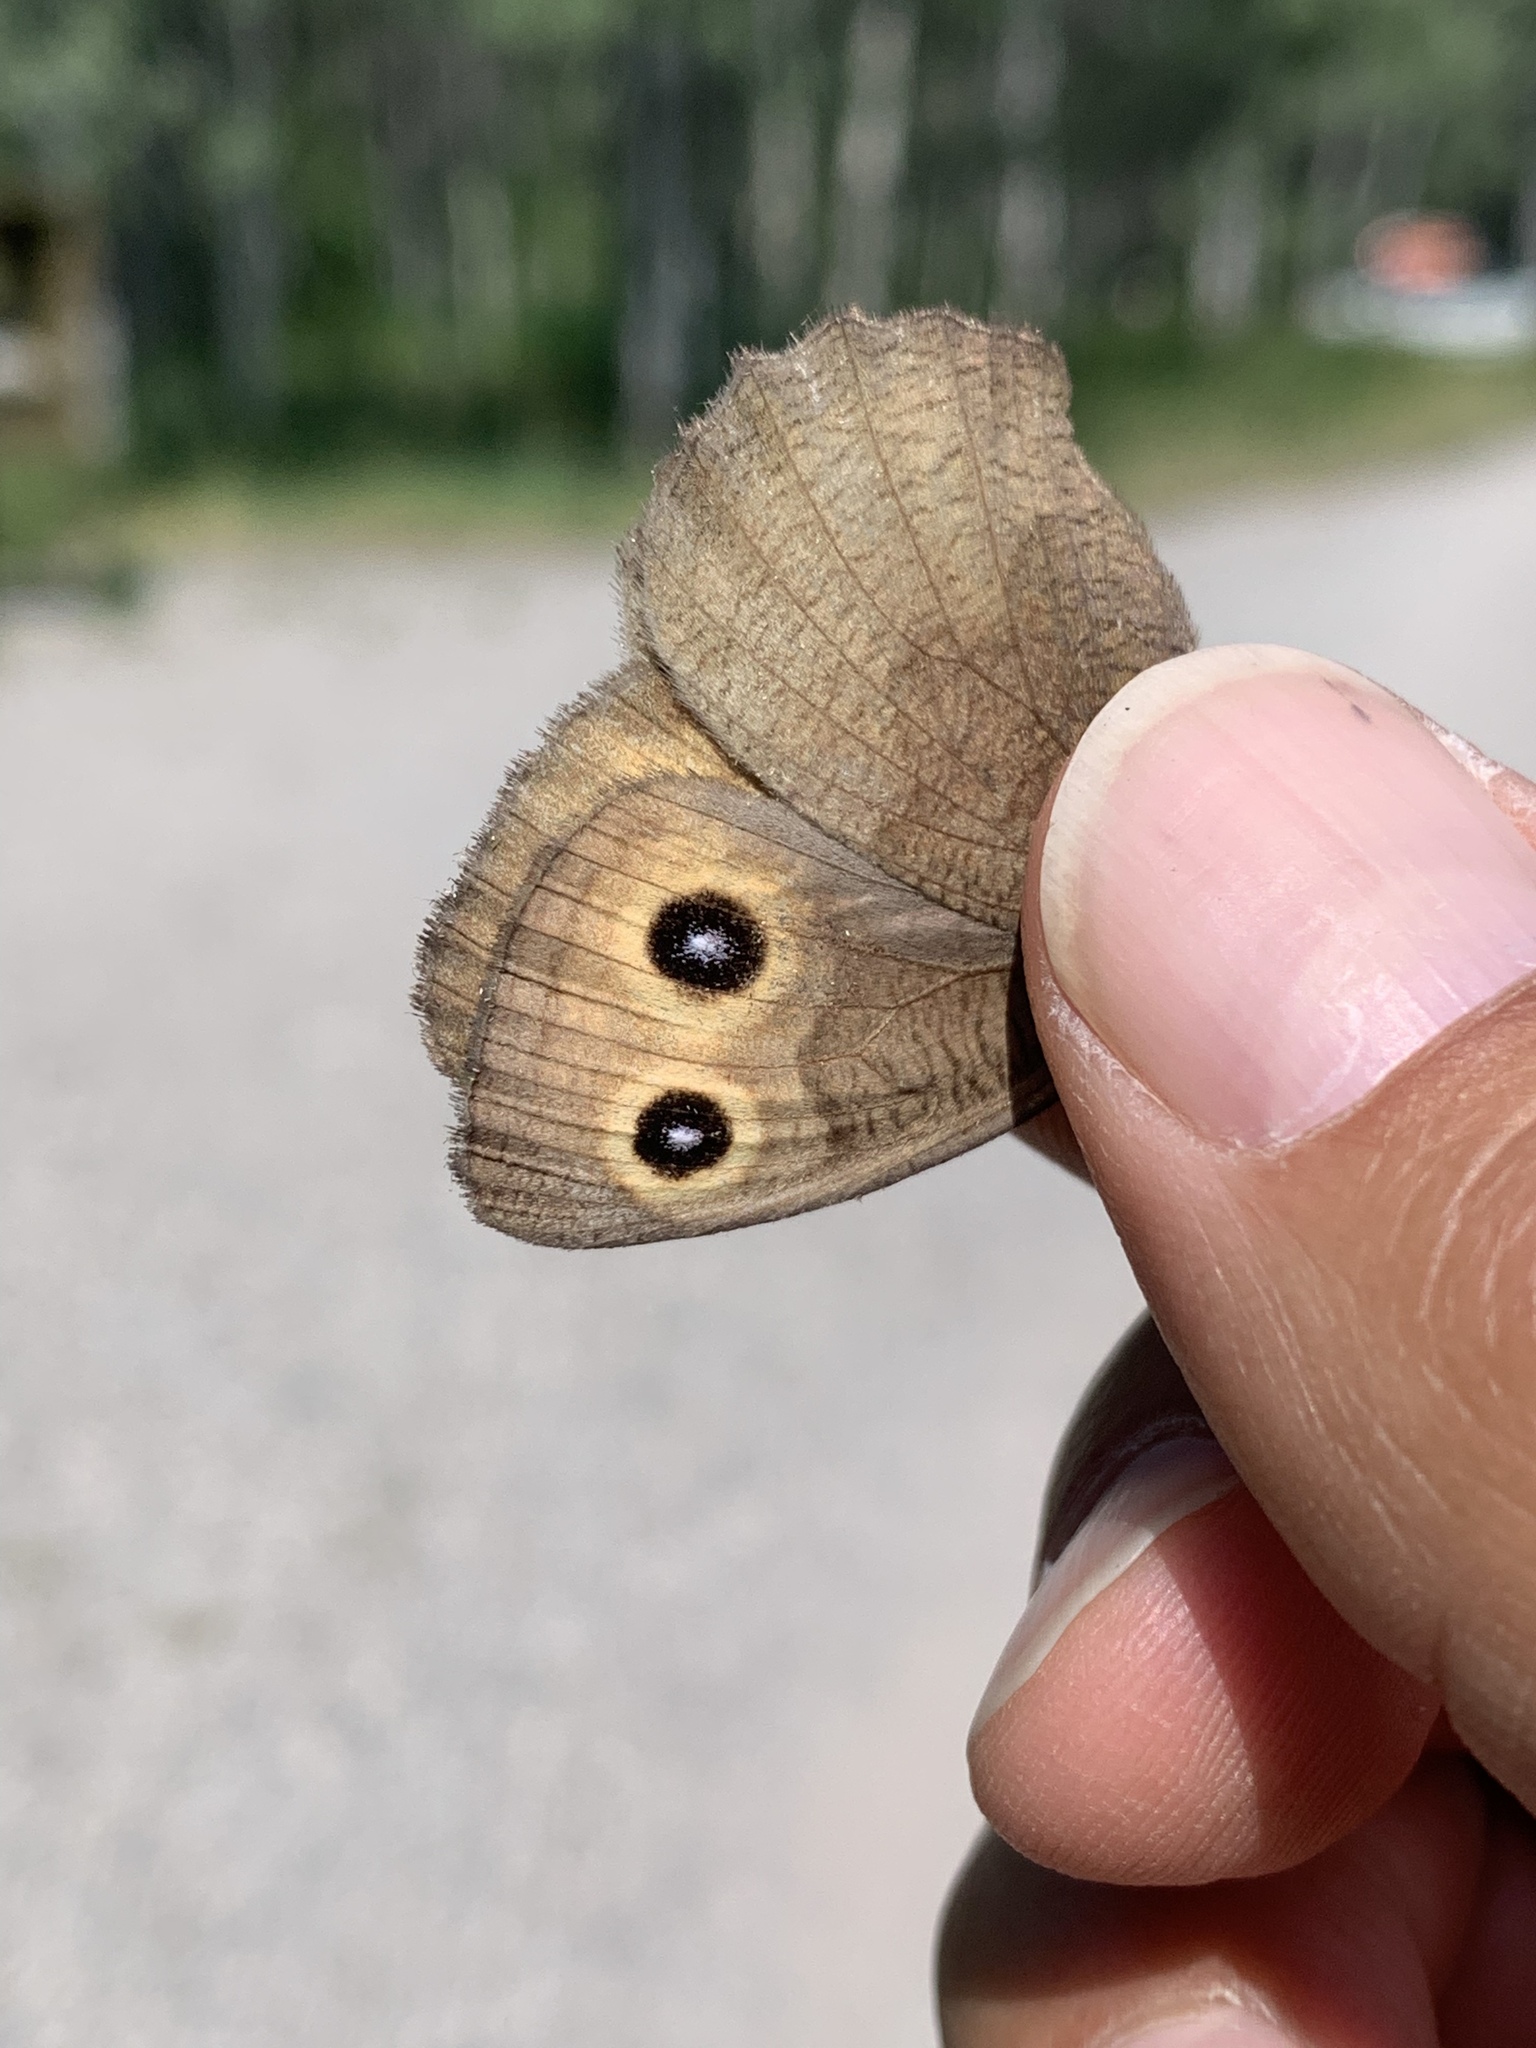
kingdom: Animalia
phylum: Arthropoda
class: Insecta
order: Lepidoptera
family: Nymphalidae
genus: Cercyonis
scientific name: Cercyonis pegala
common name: Common wood-nymph
